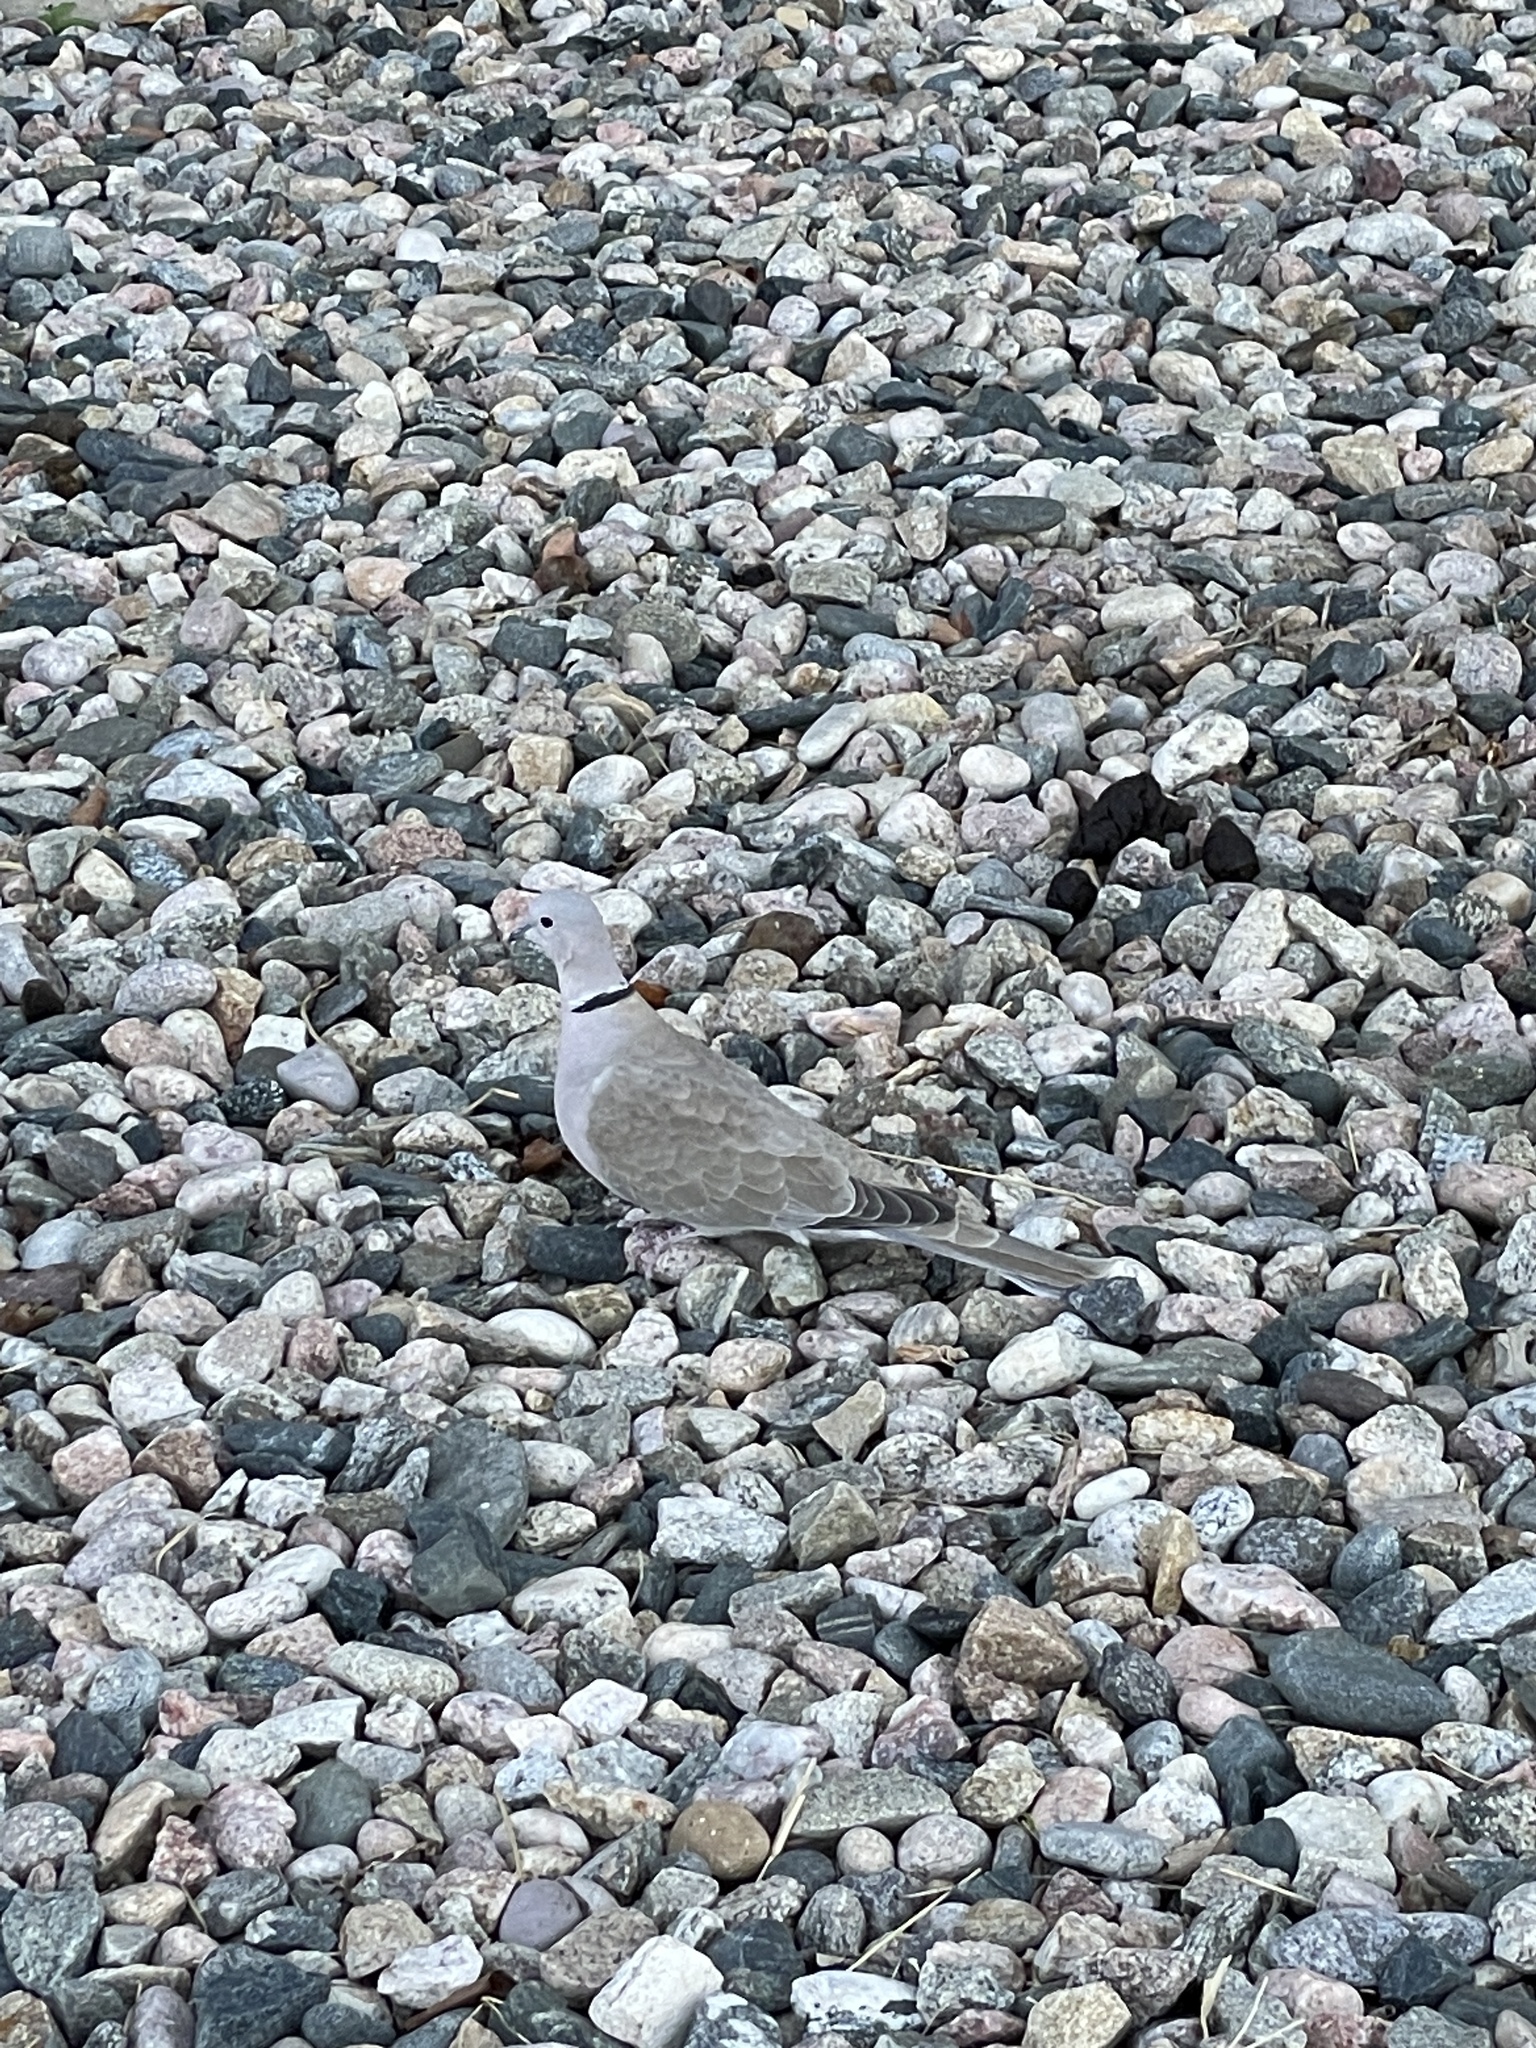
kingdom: Animalia
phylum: Chordata
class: Aves
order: Columbiformes
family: Columbidae
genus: Streptopelia
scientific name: Streptopelia decaocto
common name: Eurasian collared dove
